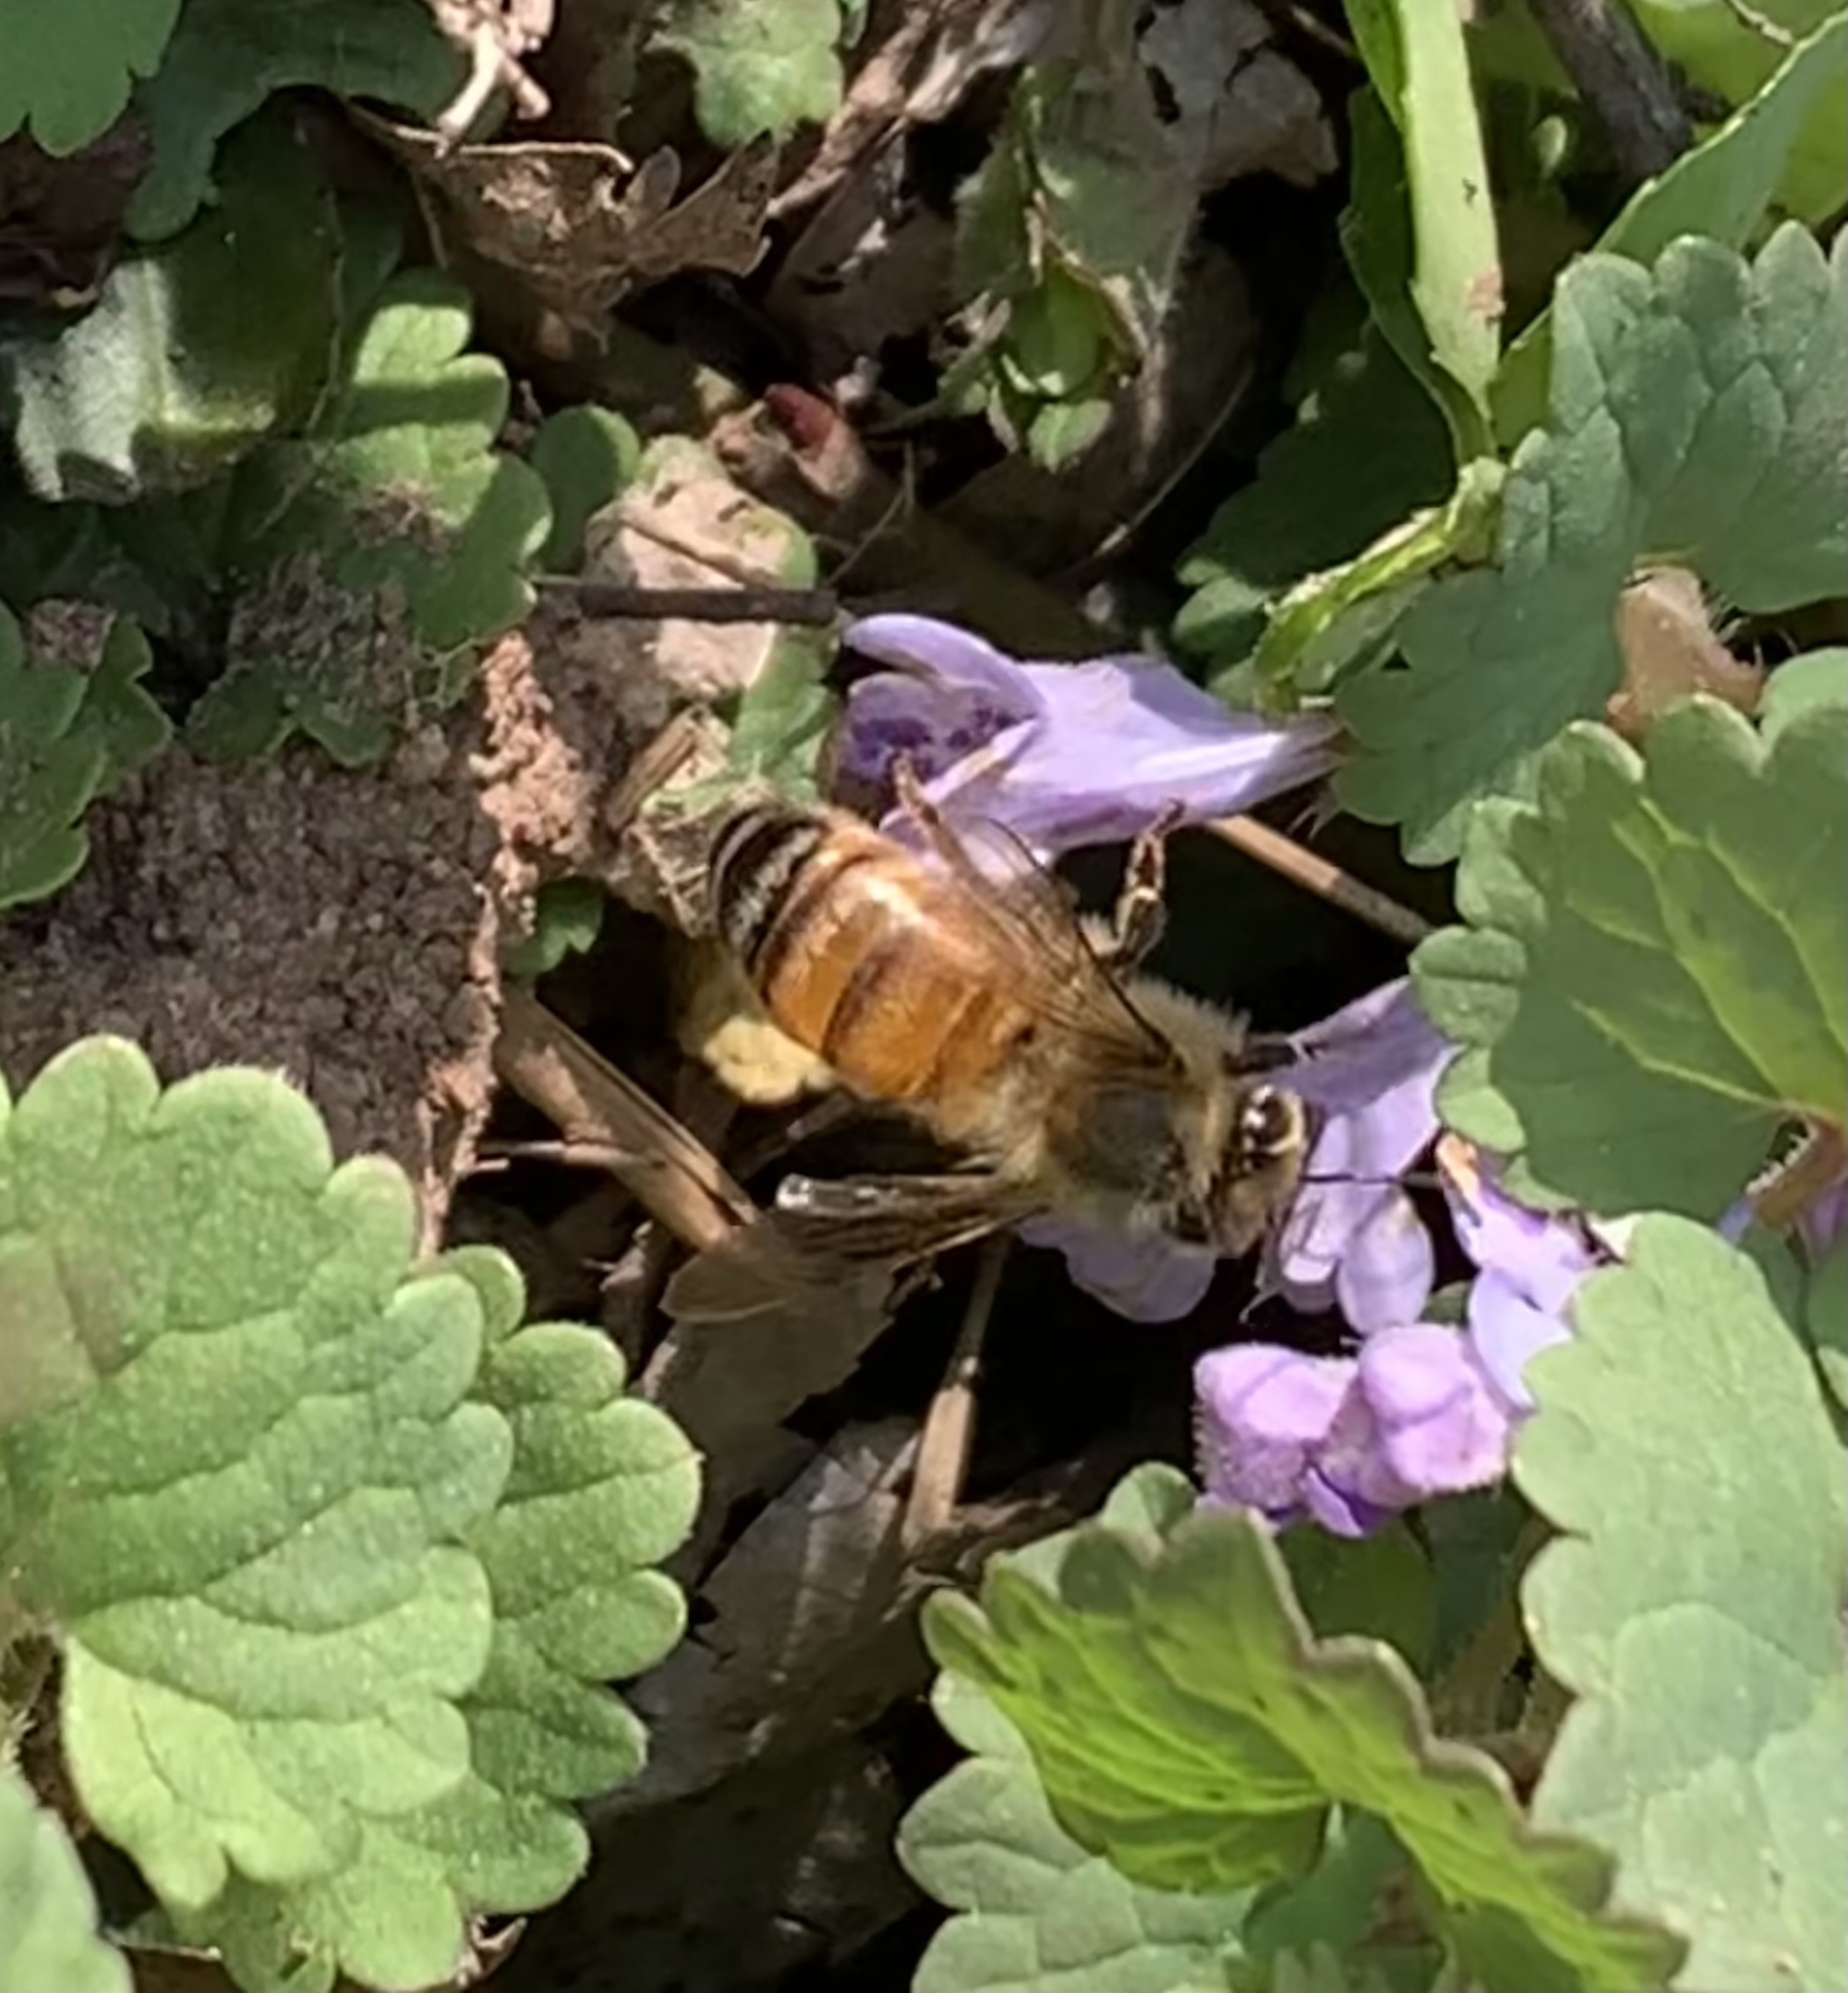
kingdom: Animalia
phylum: Arthropoda
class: Insecta
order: Hymenoptera
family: Apidae
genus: Apis
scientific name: Apis mellifera
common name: Honey bee
